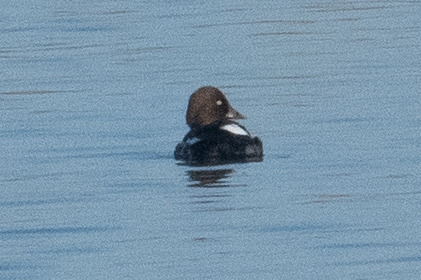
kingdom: Animalia
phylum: Chordata
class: Aves
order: Anseriformes
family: Anatidae
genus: Bucephala
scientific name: Bucephala clangula
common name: Common goldeneye
